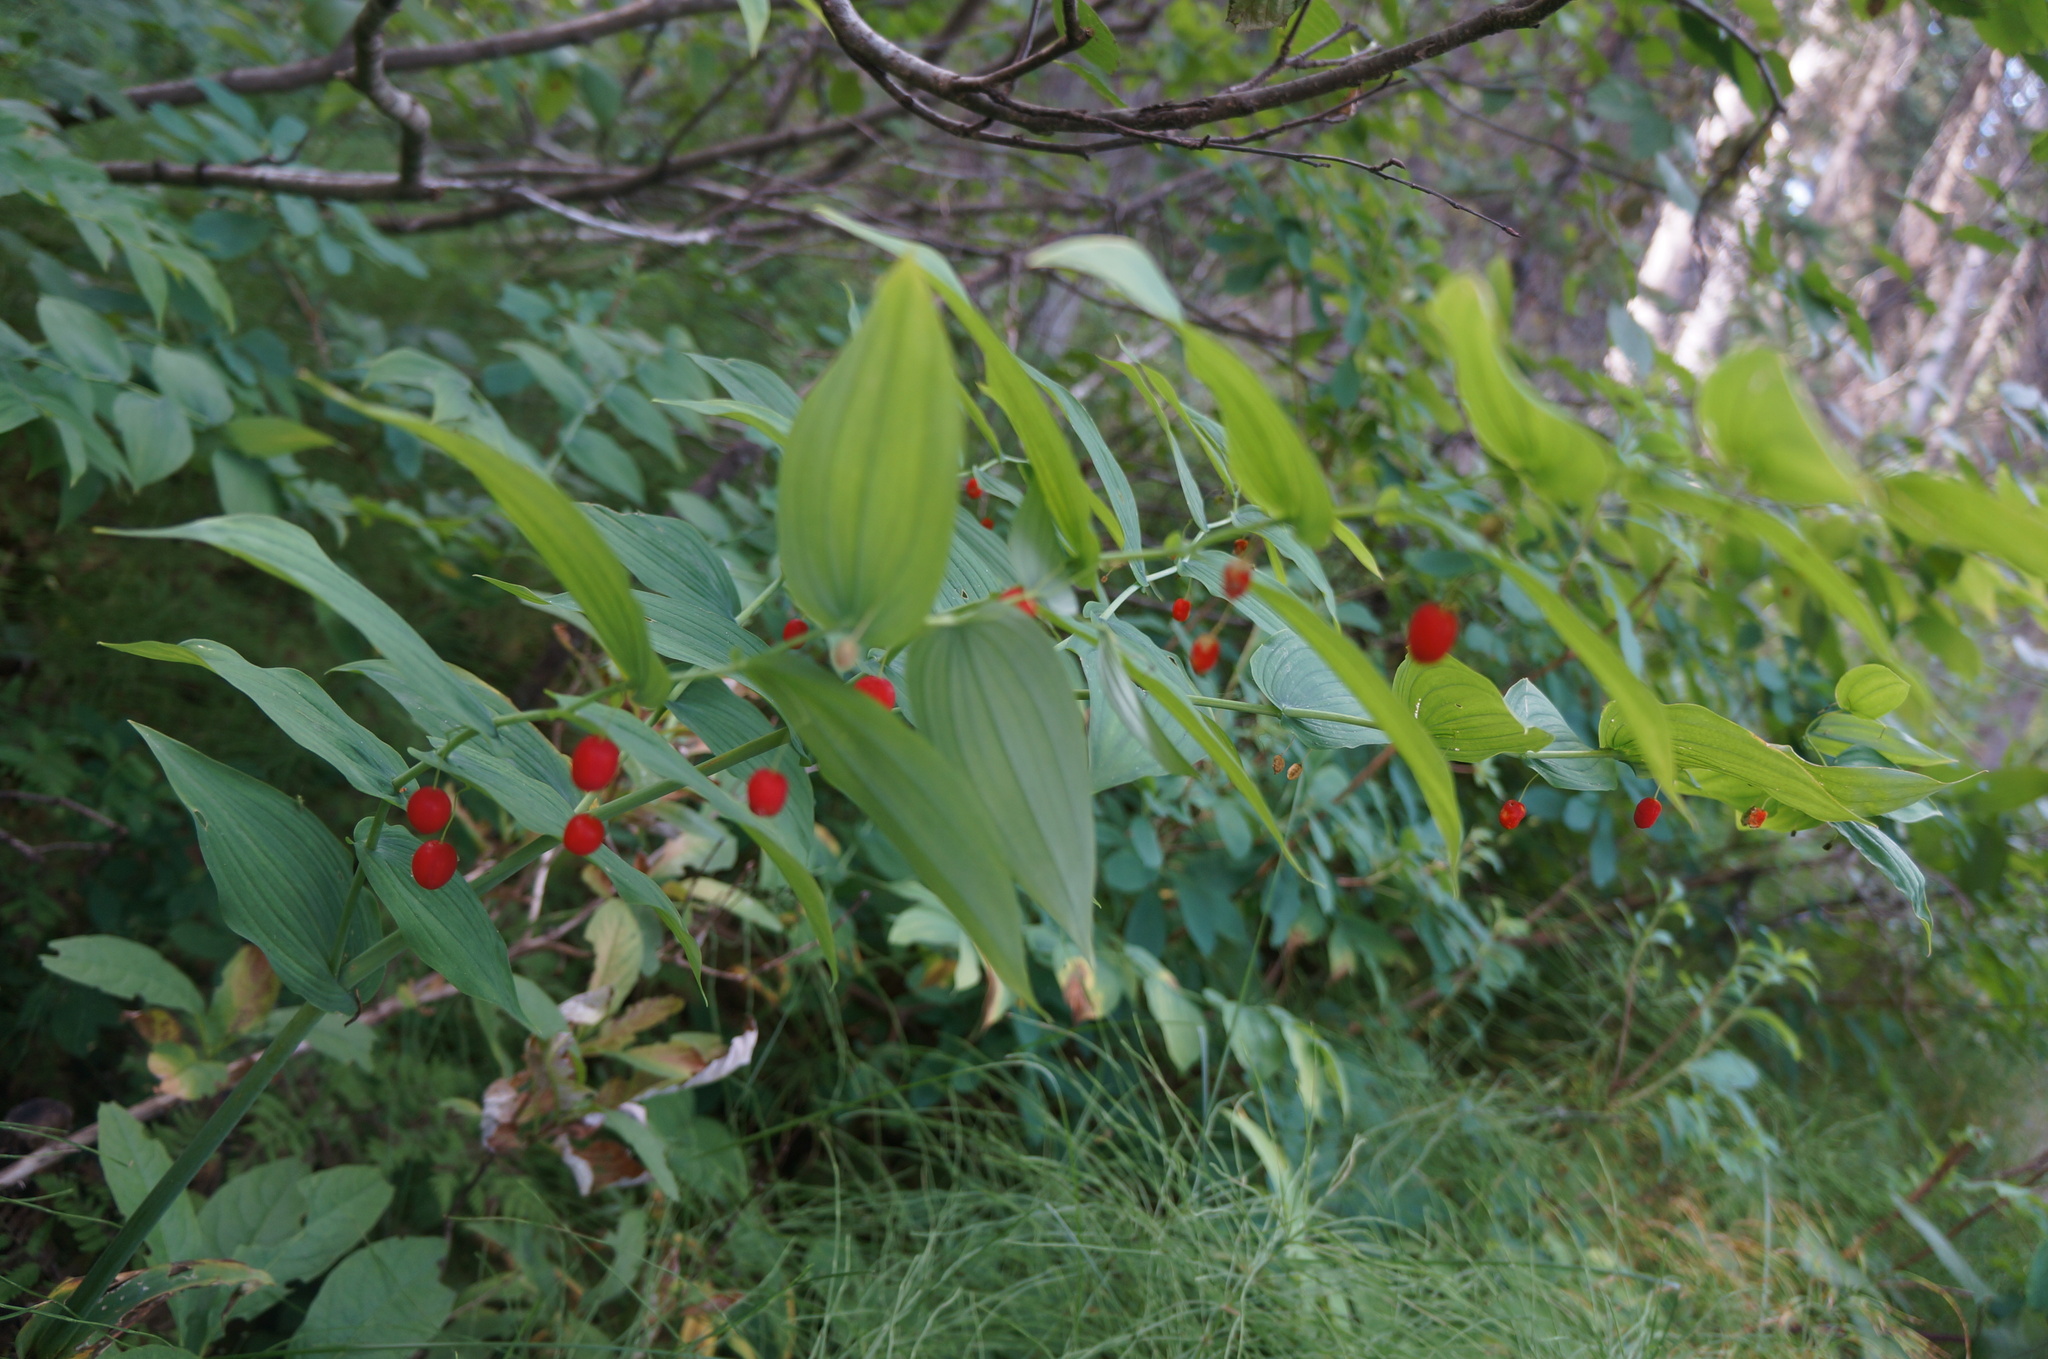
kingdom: Plantae
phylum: Tracheophyta
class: Liliopsida
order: Liliales
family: Liliaceae
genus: Streptopus
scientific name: Streptopus amplexifolius
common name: Clasp twisted stalk
